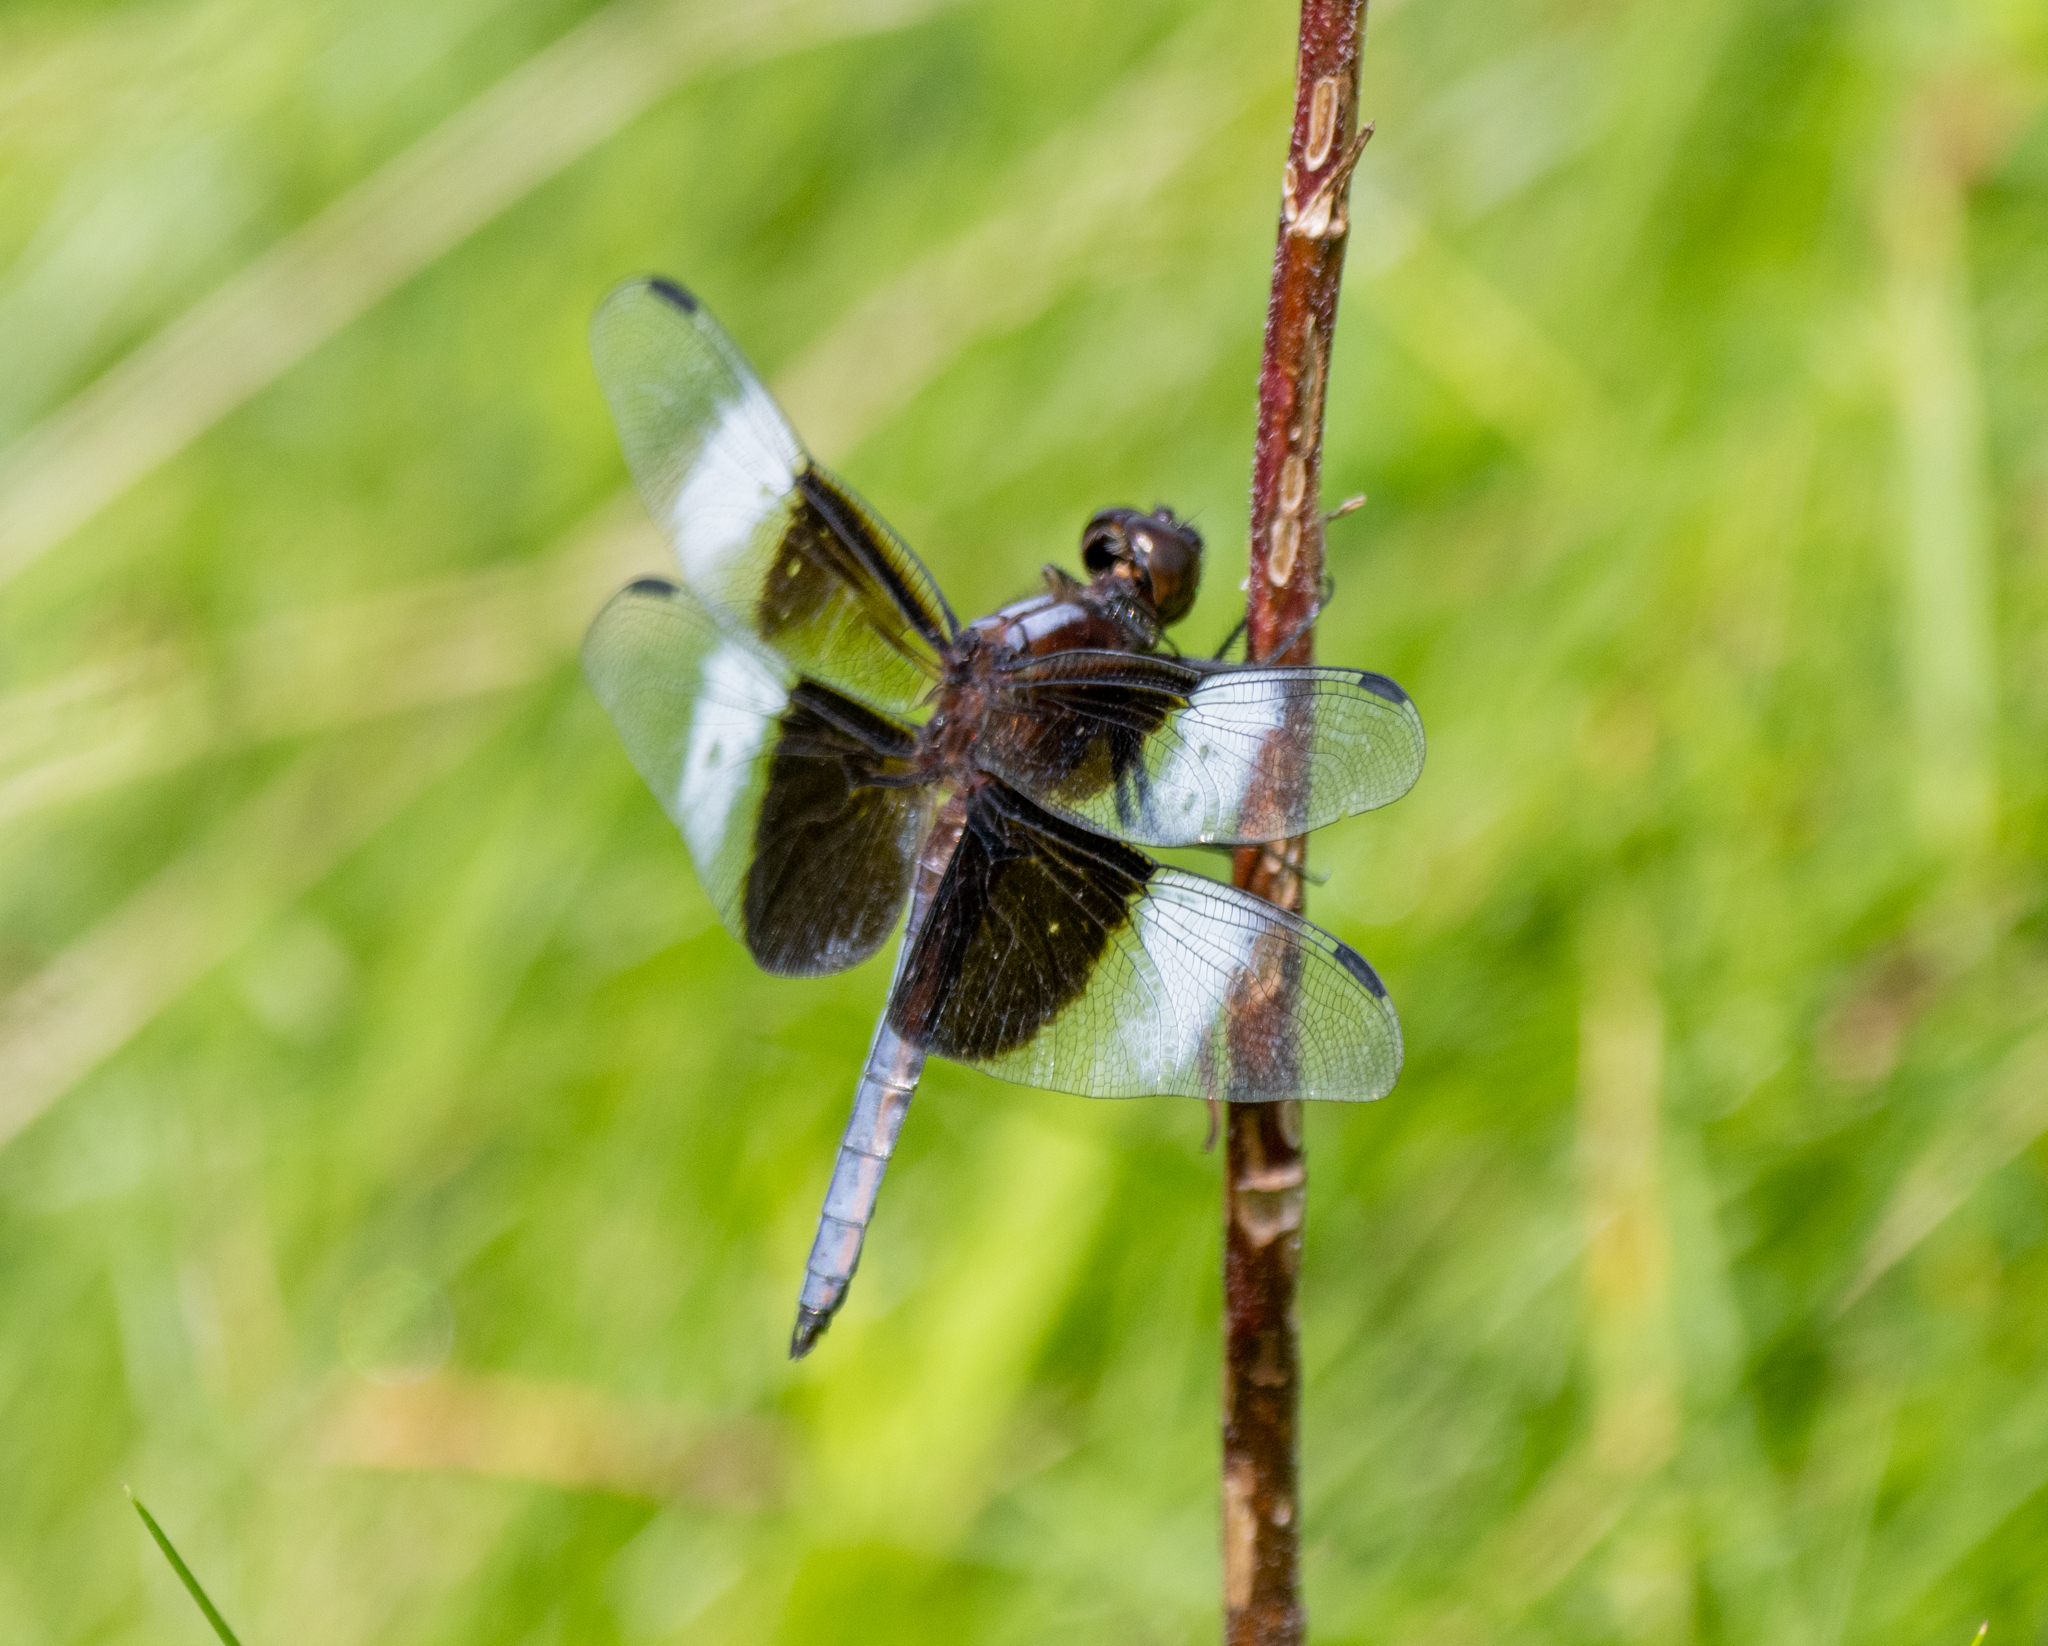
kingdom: Animalia
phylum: Arthropoda
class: Insecta
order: Odonata
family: Libellulidae
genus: Libellula
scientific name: Libellula luctuosa
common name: Widow skimmer
